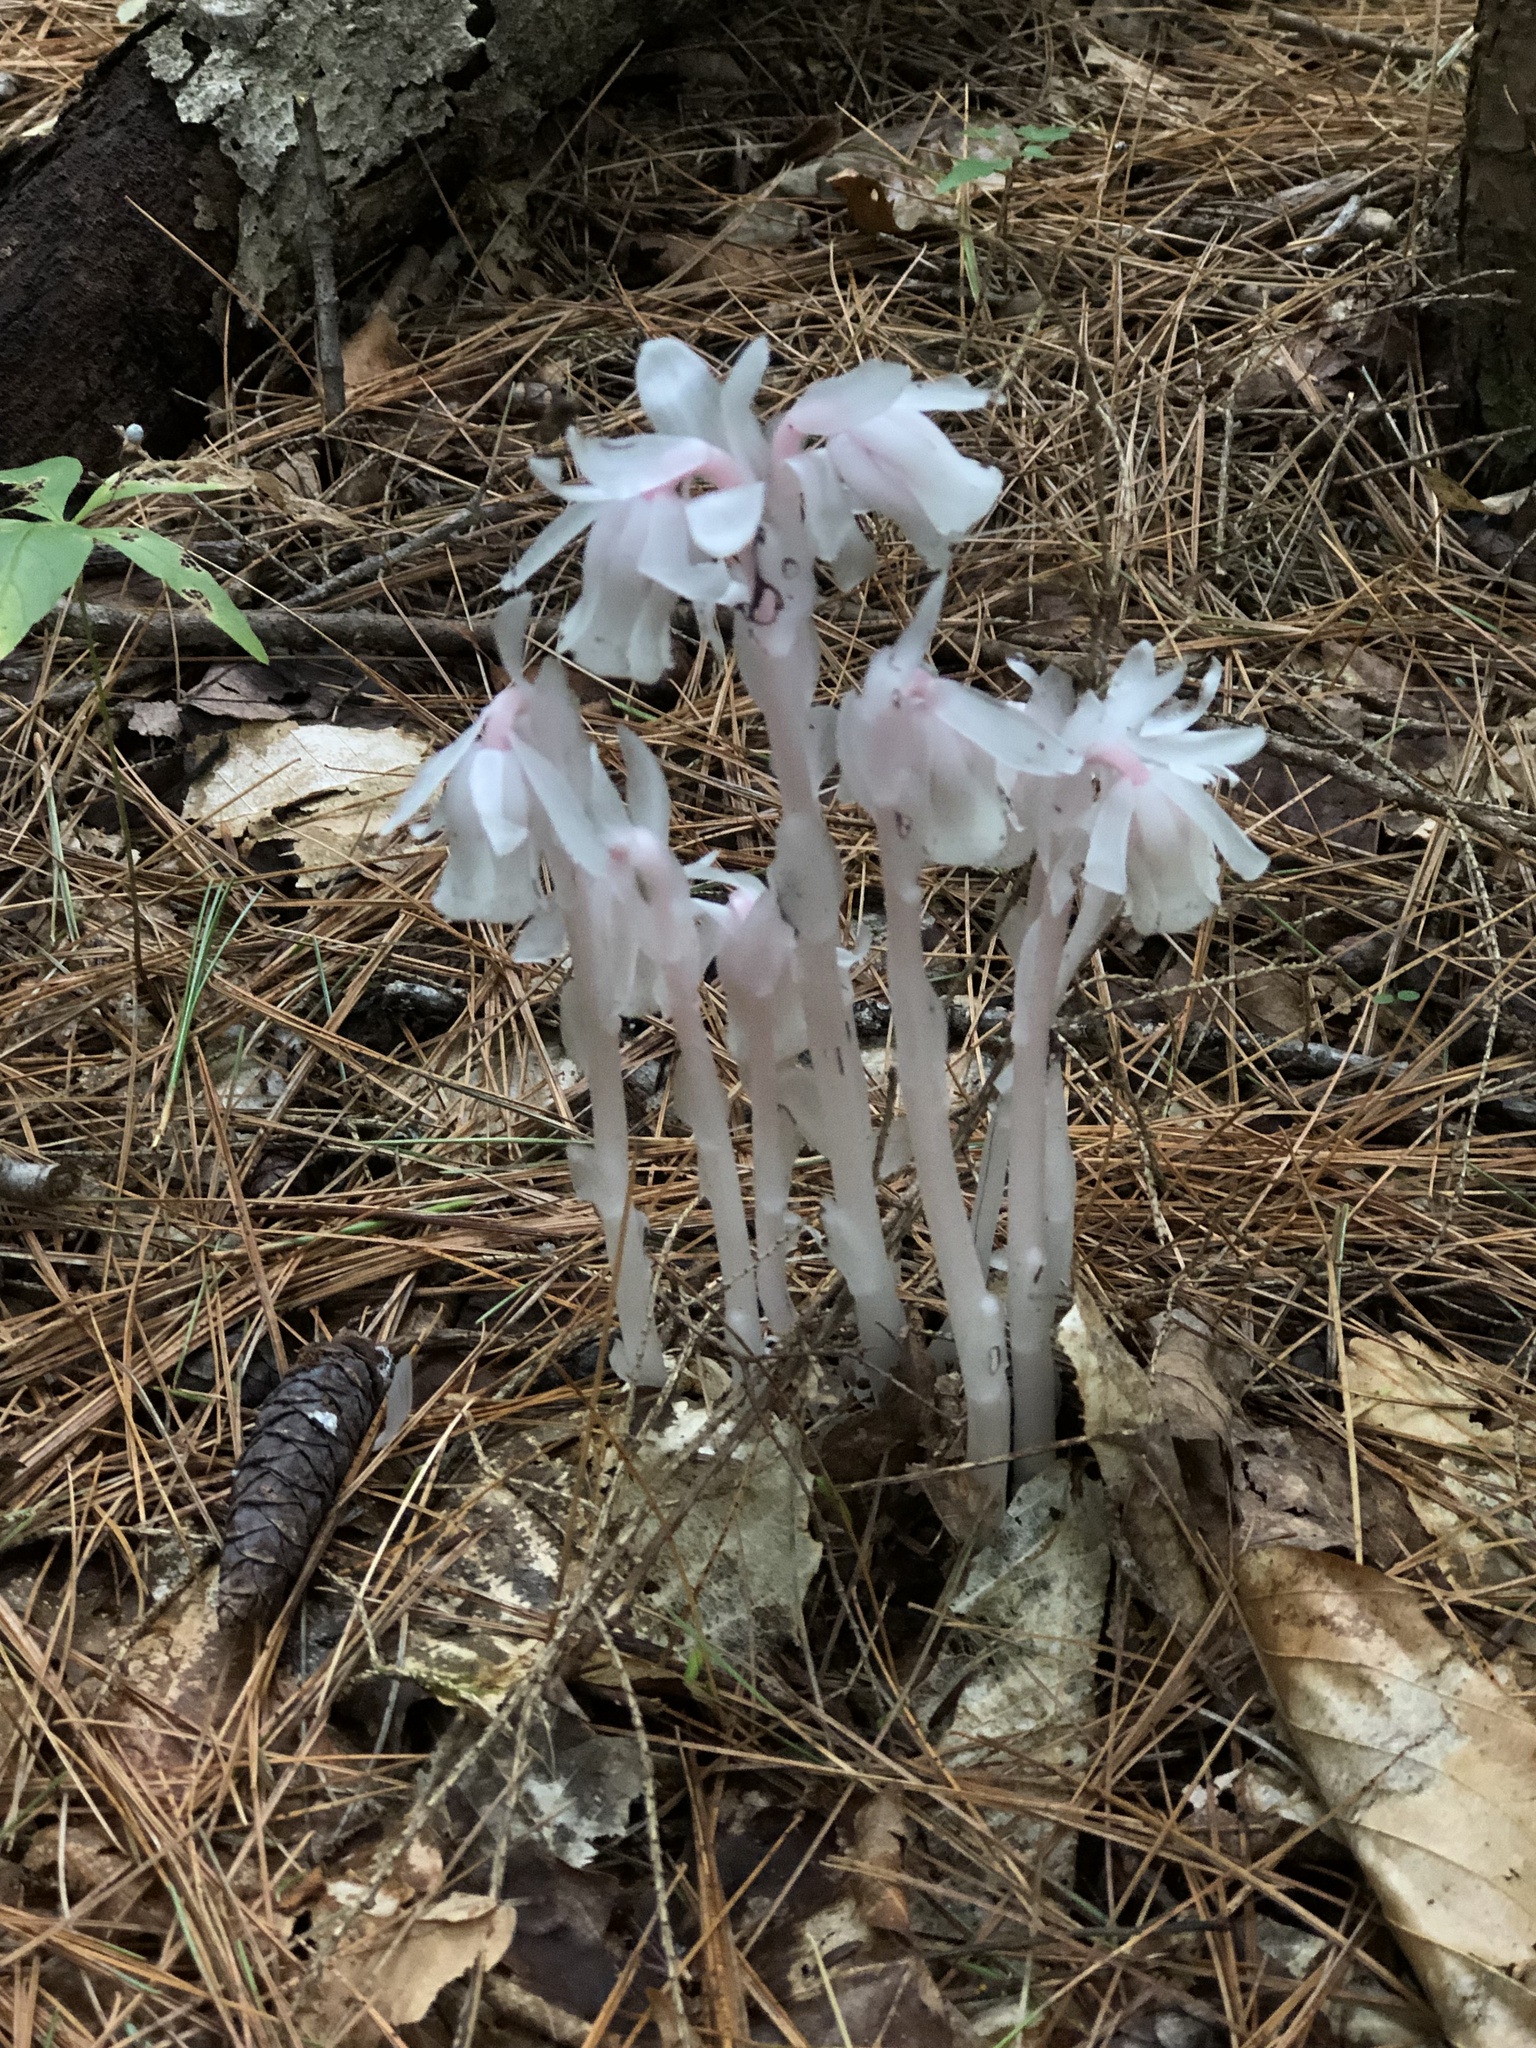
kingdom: Plantae
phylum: Tracheophyta
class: Magnoliopsida
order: Ericales
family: Ericaceae
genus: Monotropa
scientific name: Monotropa uniflora
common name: Convulsion root
